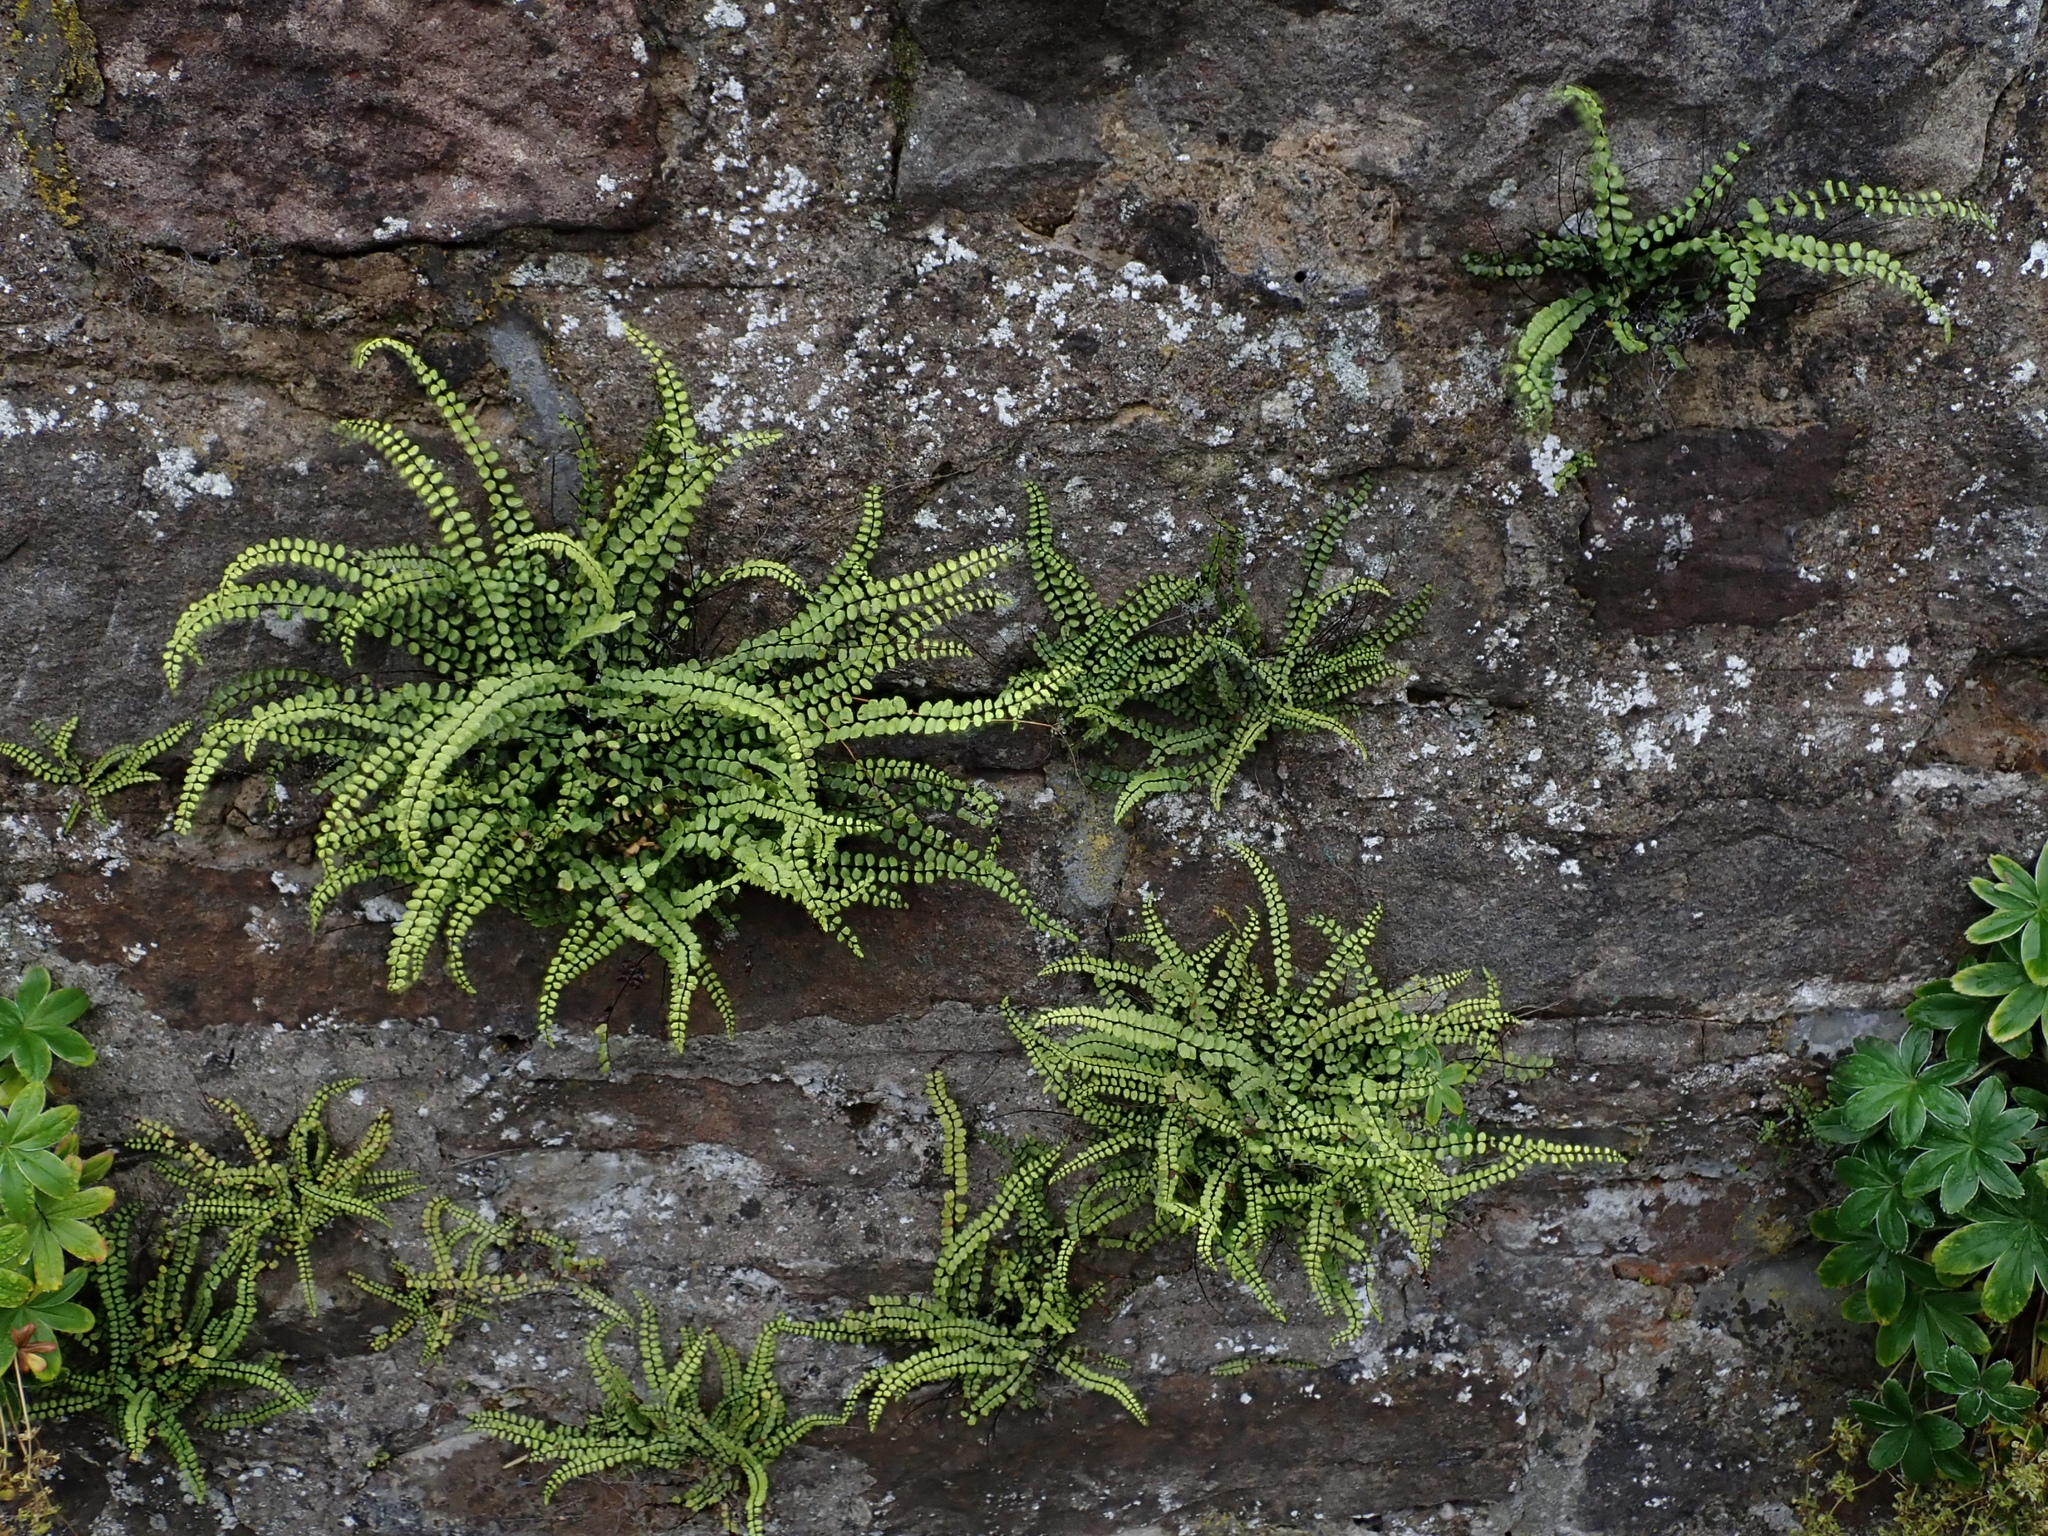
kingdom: Plantae
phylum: Tracheophyta
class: Polypodiopsida
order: Polypodiales
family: Aspleniaceae
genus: Asplenium
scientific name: Asplenium trichomanes
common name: Maidenhair spleenwort
